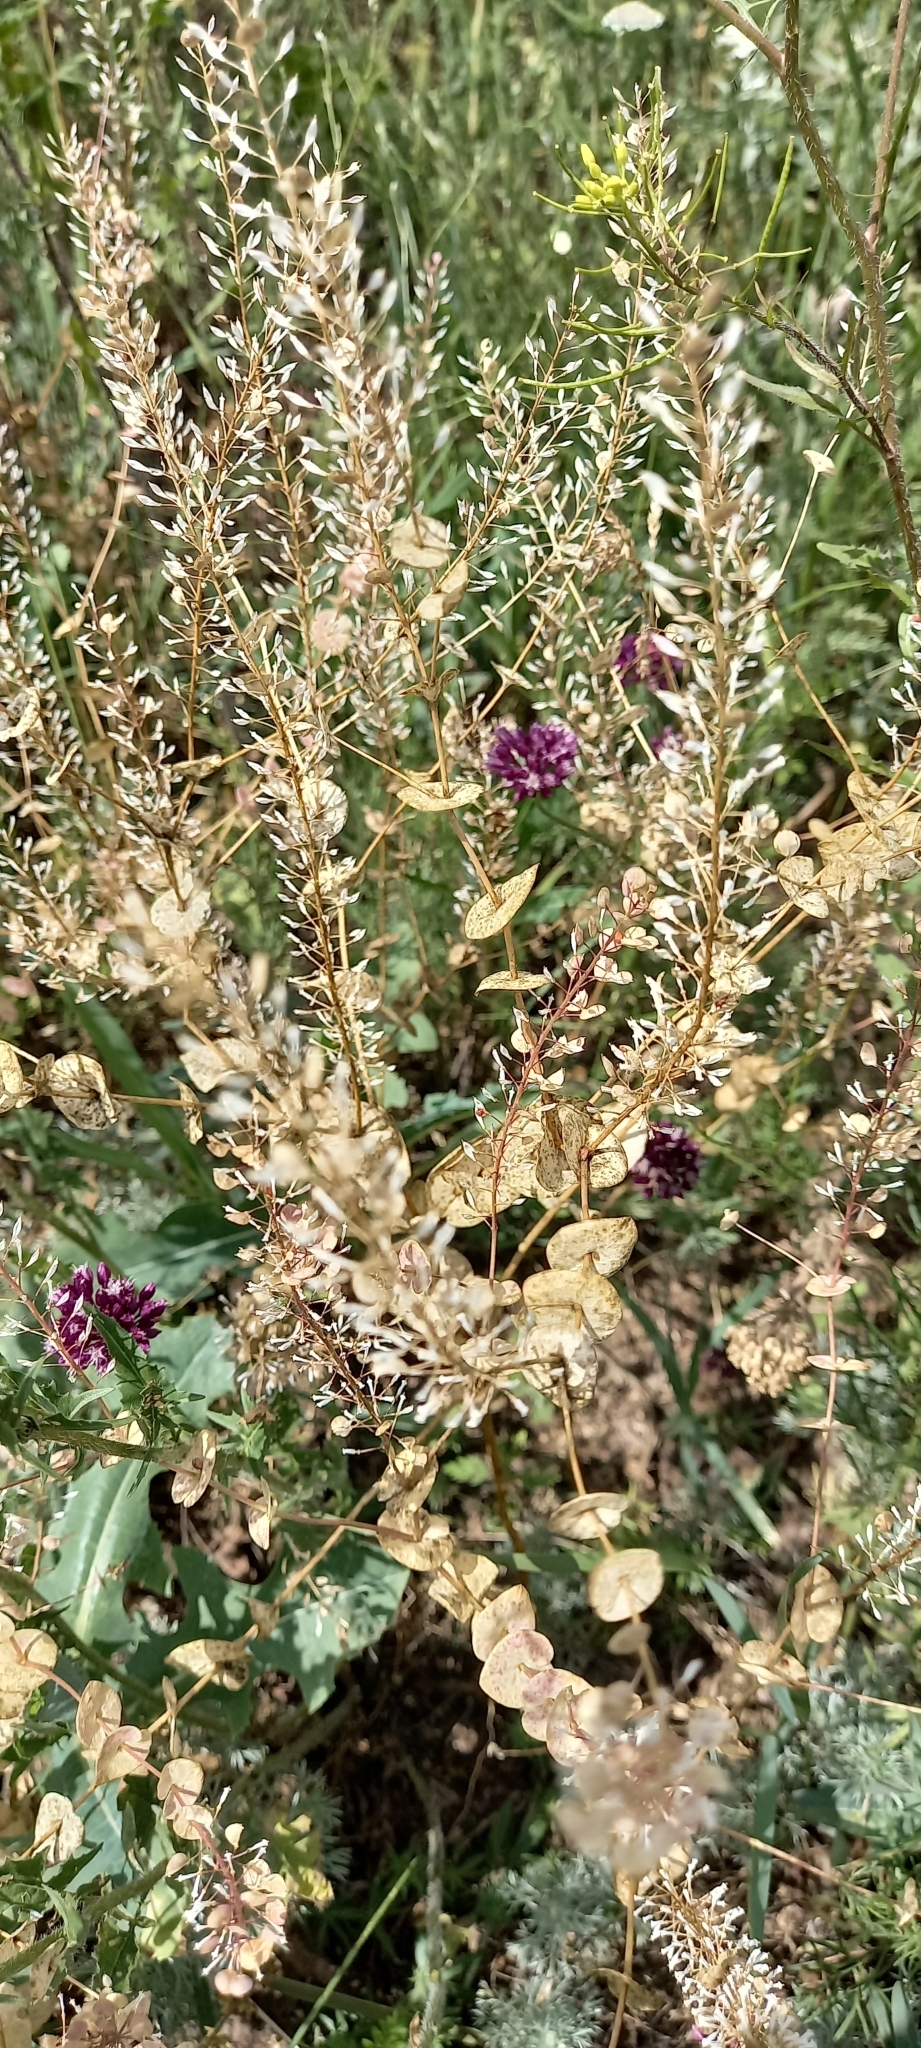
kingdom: Plantae
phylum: Tracheophyta
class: Magnoliopsida
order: Brassicales
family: Brassicaceae
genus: Lepidium
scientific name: Lepidium perfoliatum
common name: Perfoliate pepperwort
